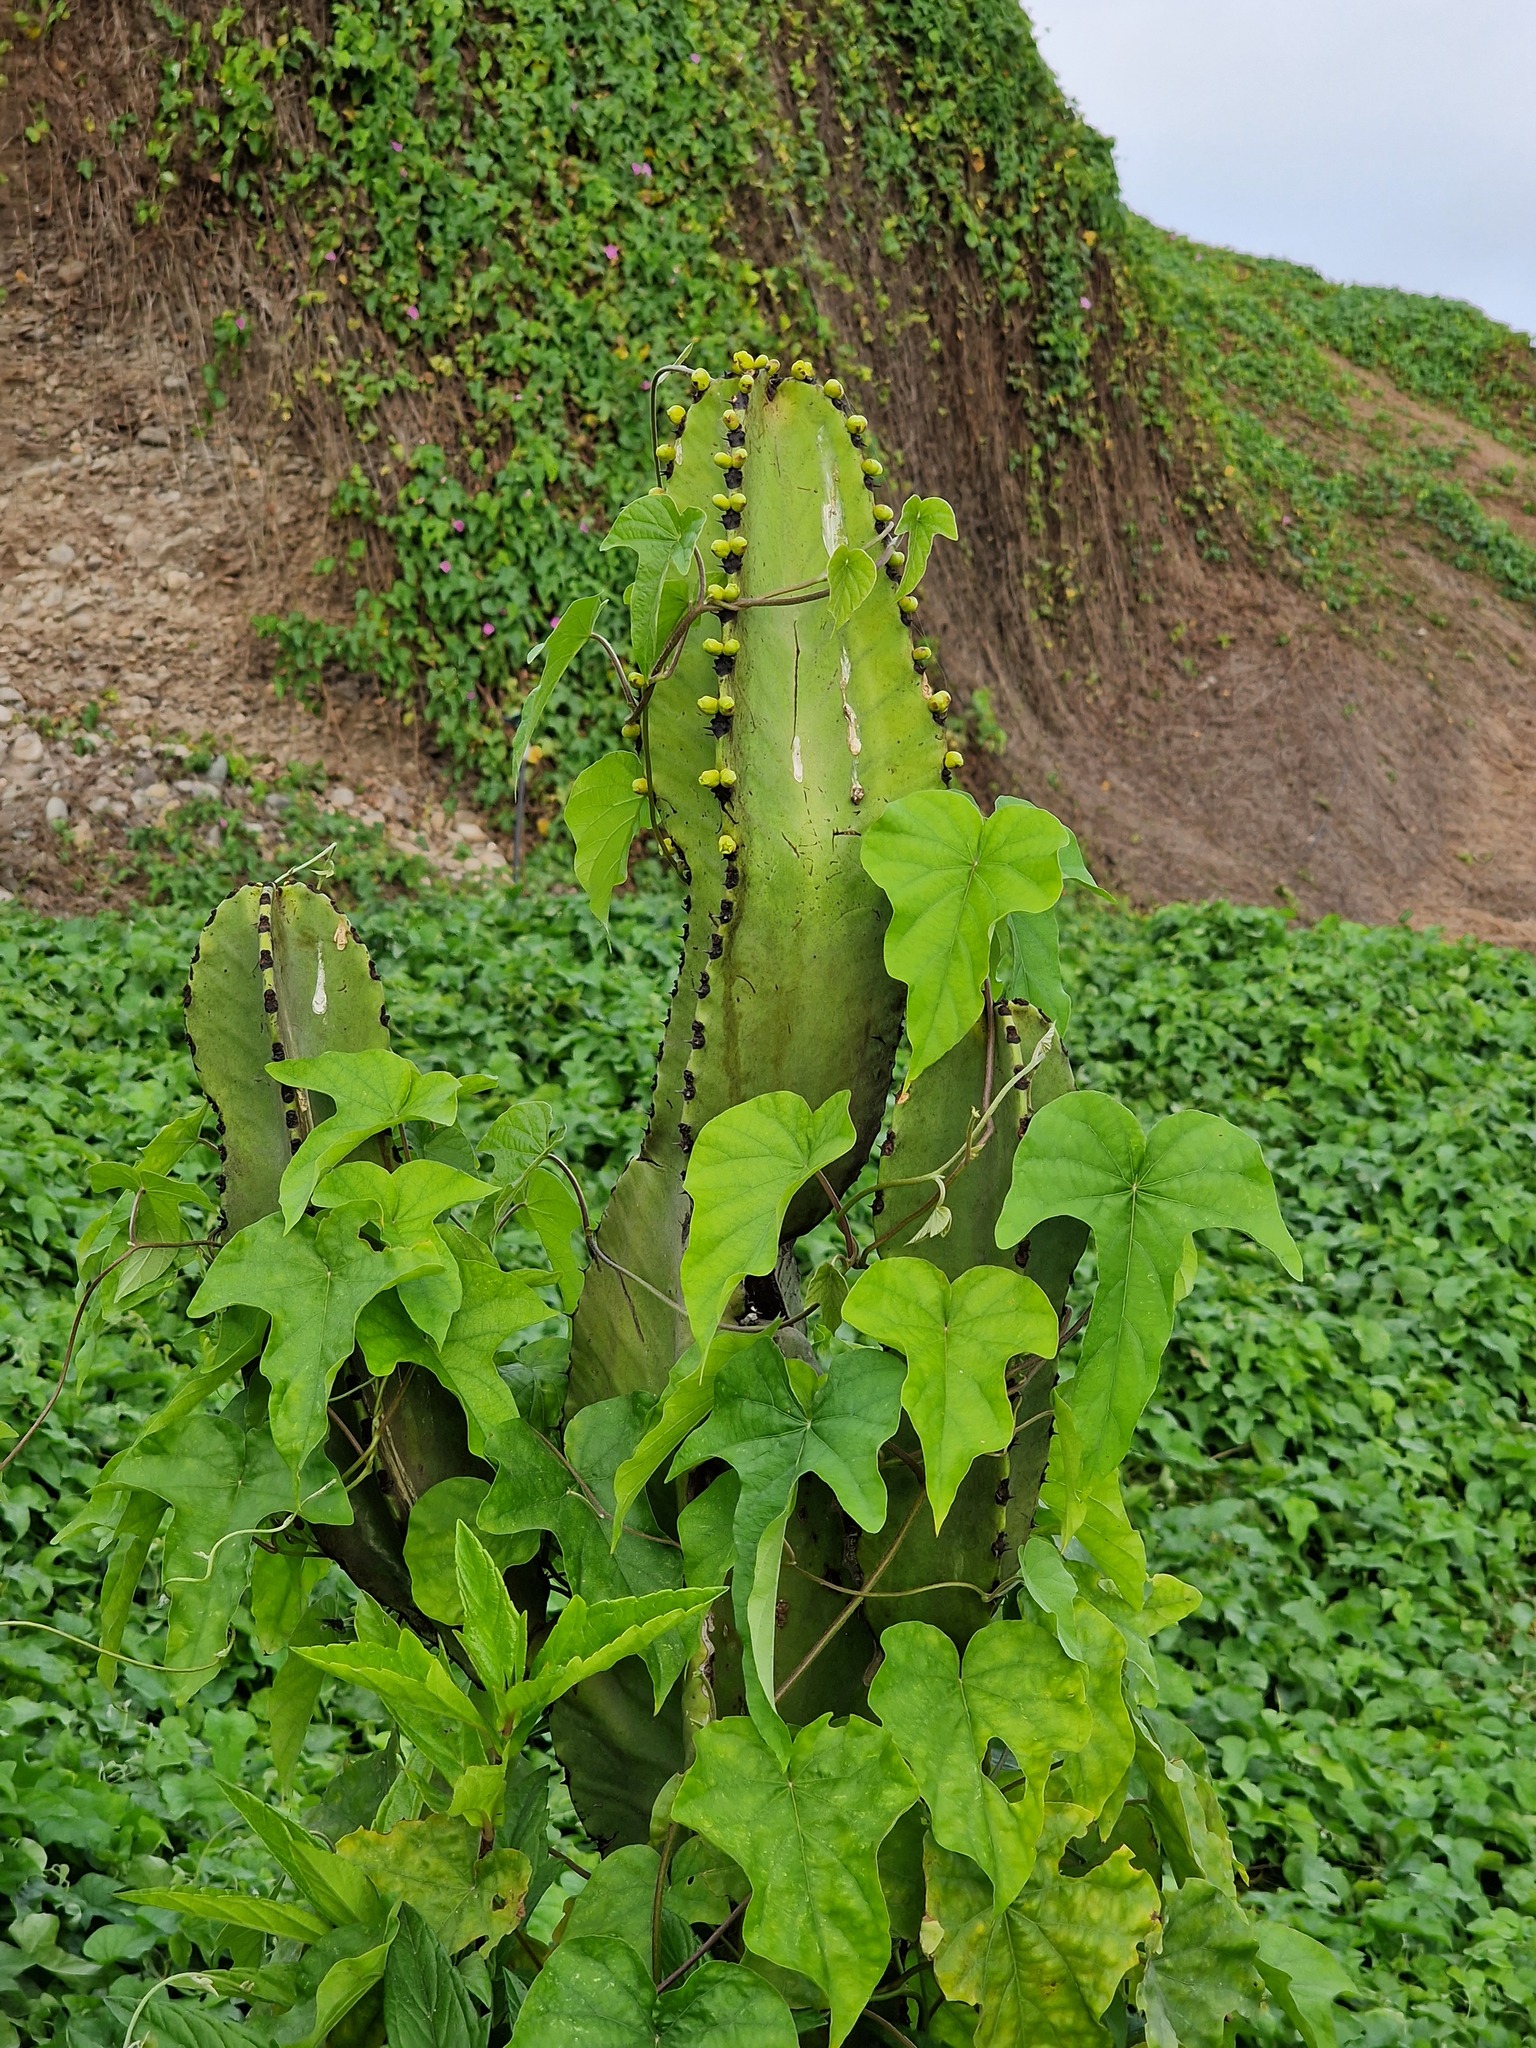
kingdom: Plantae
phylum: Tracheophyta
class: Magnoliopsida
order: Malpighiales
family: Euphorbiaceae
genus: Euphorbia
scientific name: Euphorbia ingens
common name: Cactus spurge
